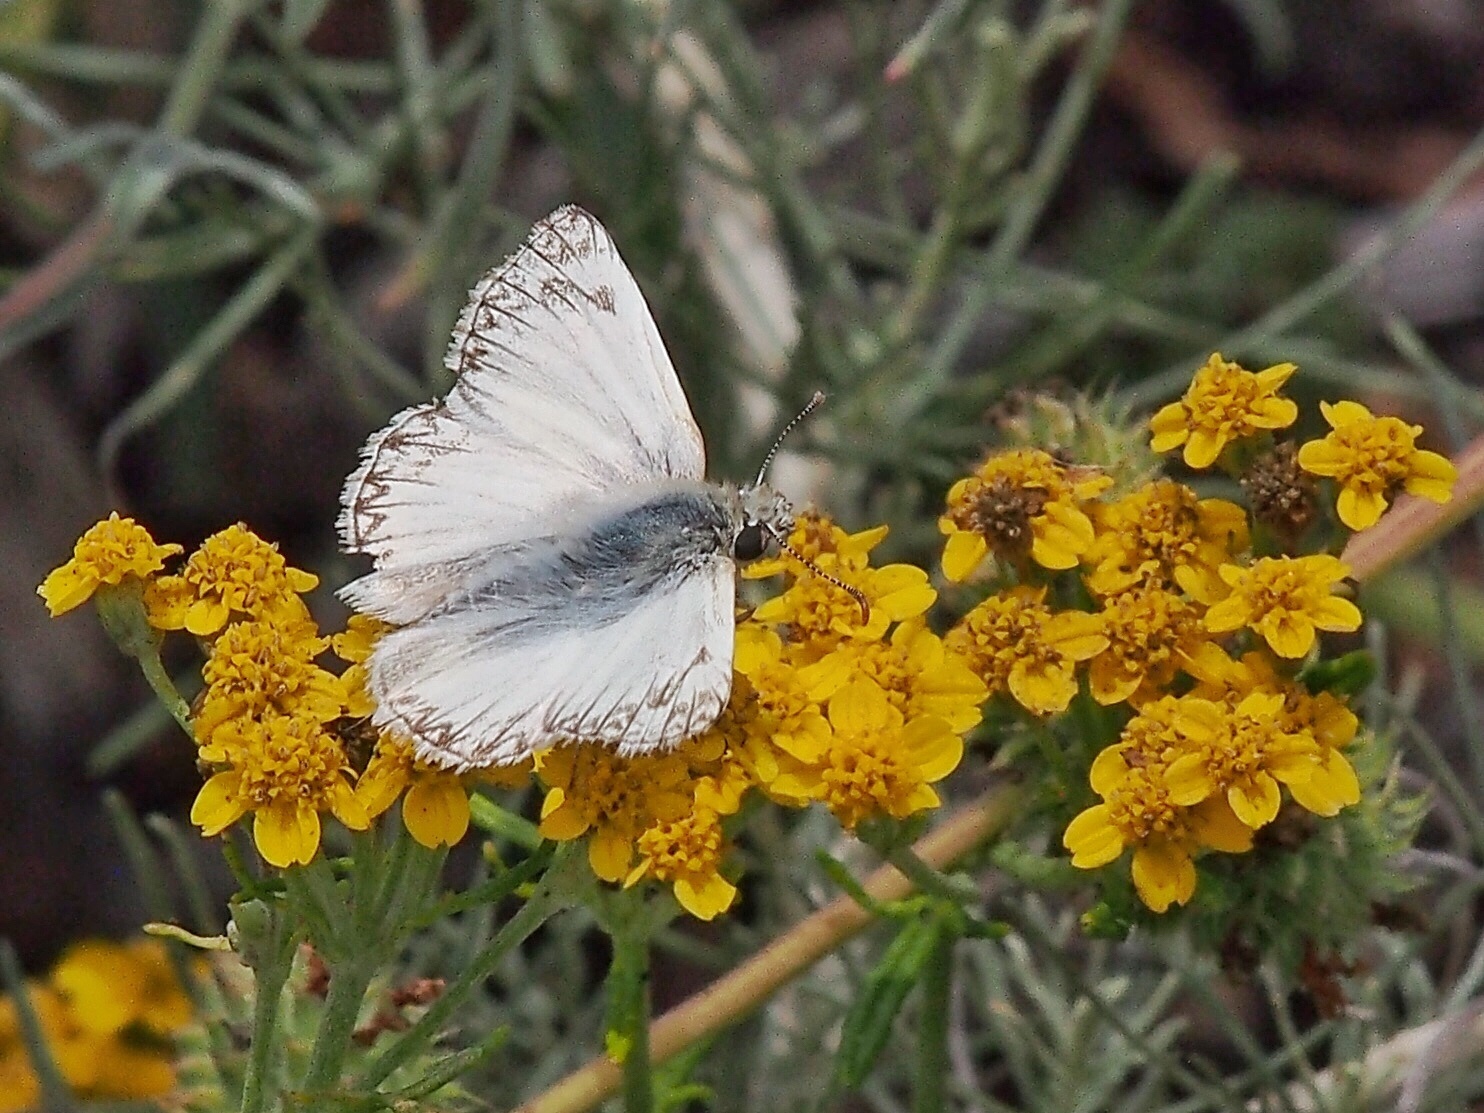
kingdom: Animalia
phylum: Arthropoda
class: Insecta
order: Lepidoptera
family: Hesperiidae
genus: Heliopetes
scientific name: Heliopetes ericetorum
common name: Northern white-skipper
